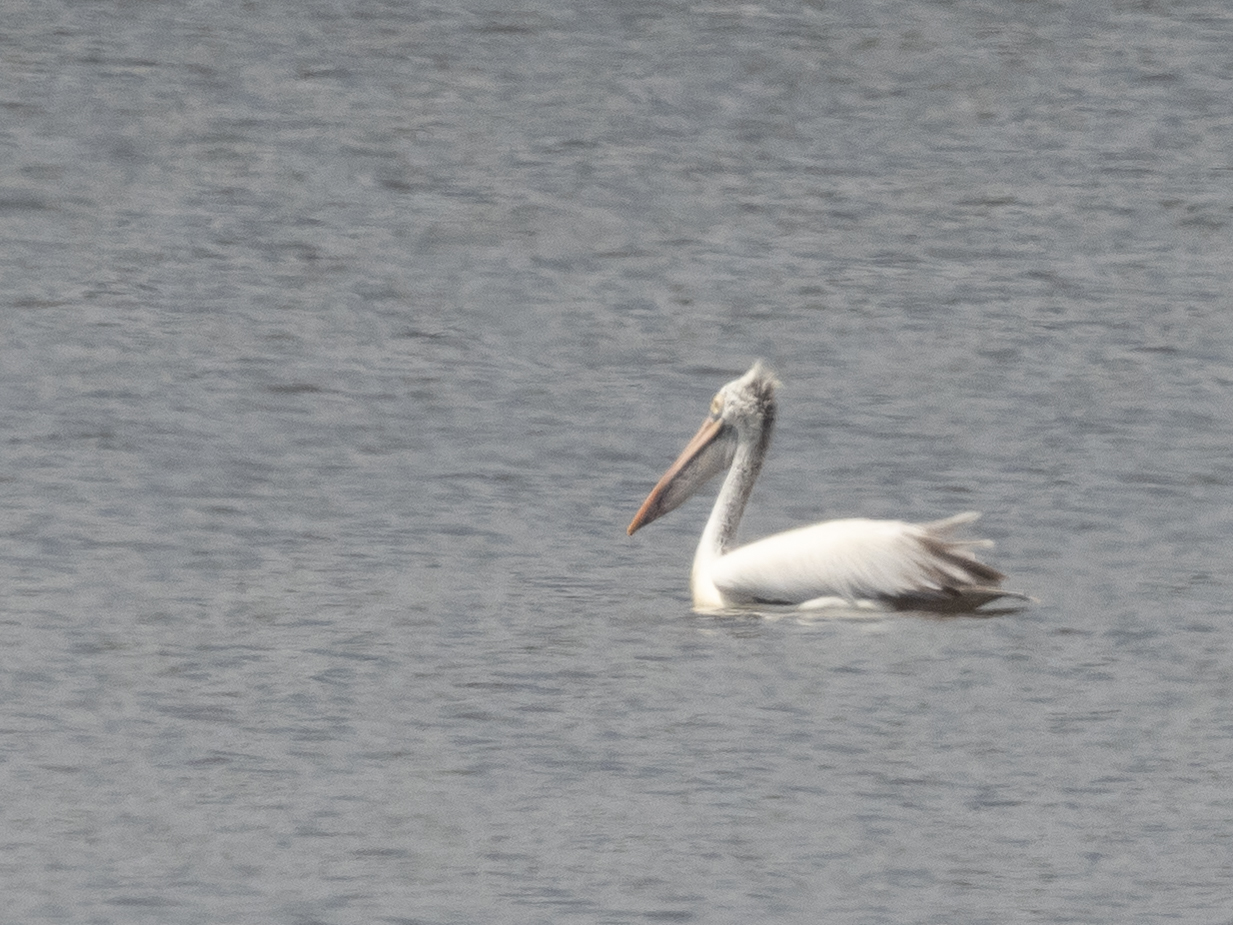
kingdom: Animalia
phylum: Chordata
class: Aves
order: Pelecaniformes
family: Pelecanidae
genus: Pelecanus
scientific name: Pelecanus philippensis
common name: Spot-billed pelican
